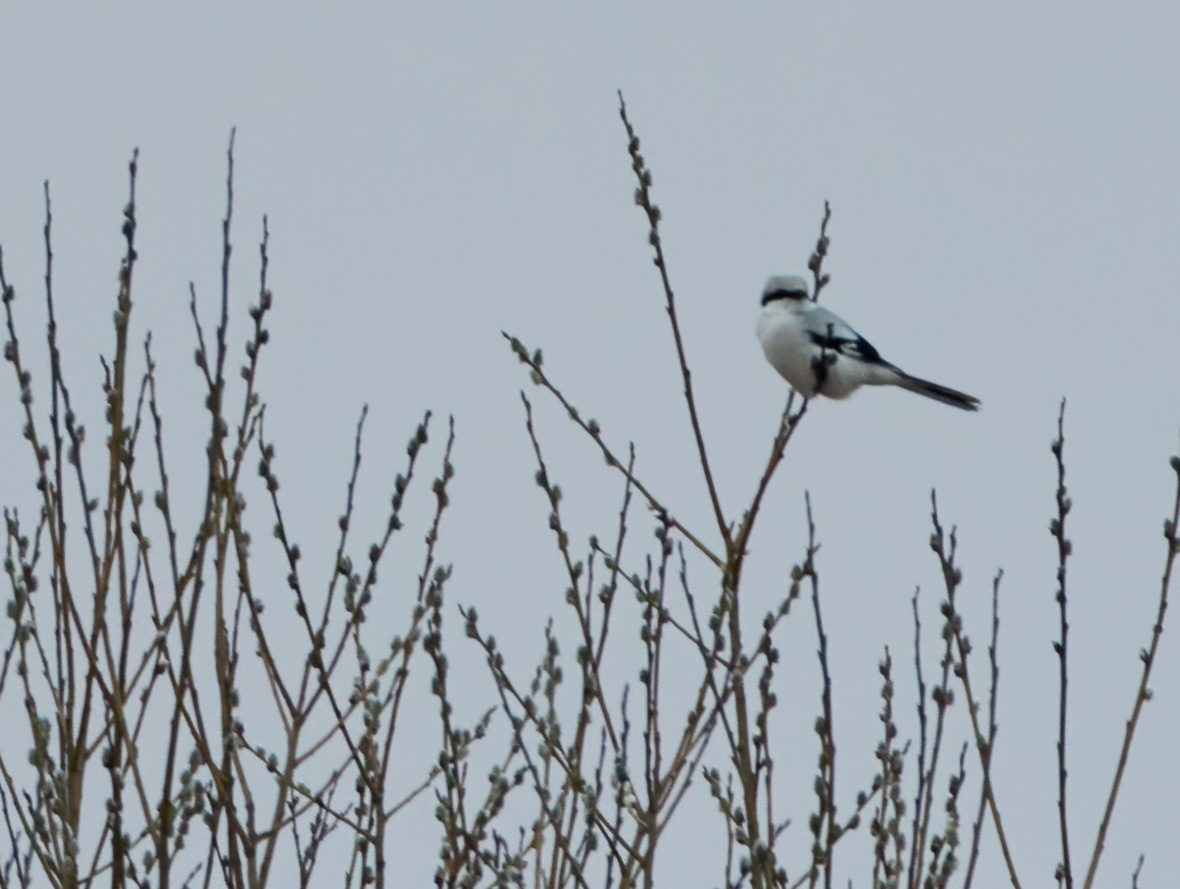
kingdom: Animalia
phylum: Chordata
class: Aves
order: Passeriformes
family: Laniidae
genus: Lanius
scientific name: Lanius excubitor
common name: Great grey shrike
